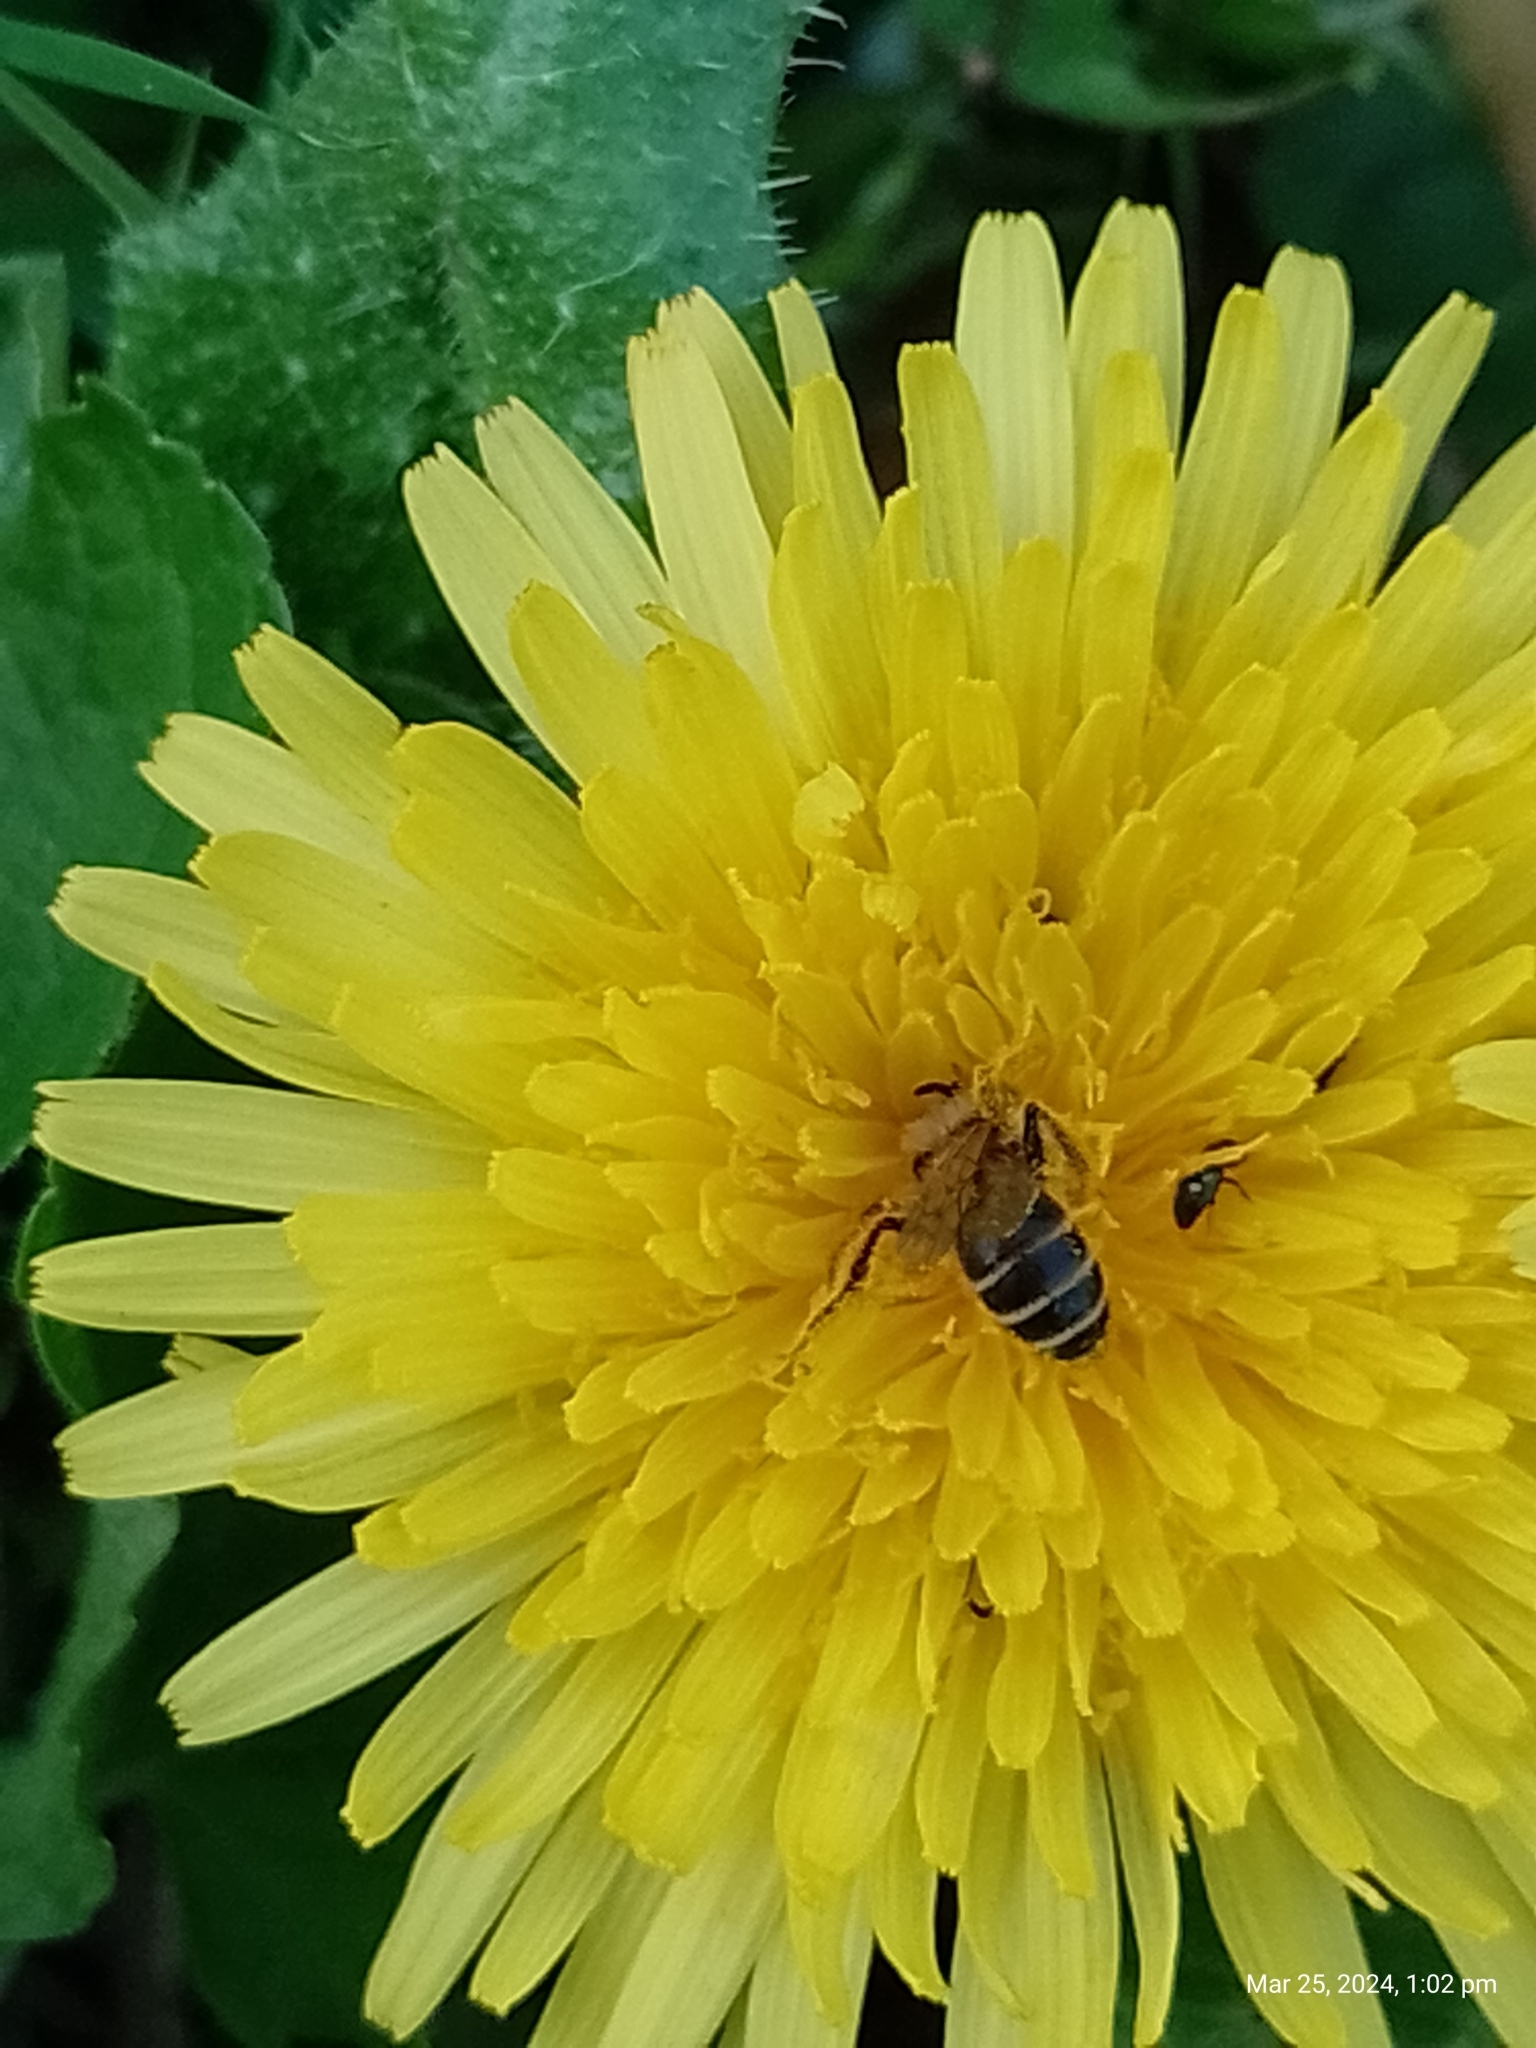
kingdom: Animalia
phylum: Arthropoda
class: Insecta
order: Hymenoptera
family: Andrenidae
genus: Andrena
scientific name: Andrena flavipes
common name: Yellow-legged mining bee
